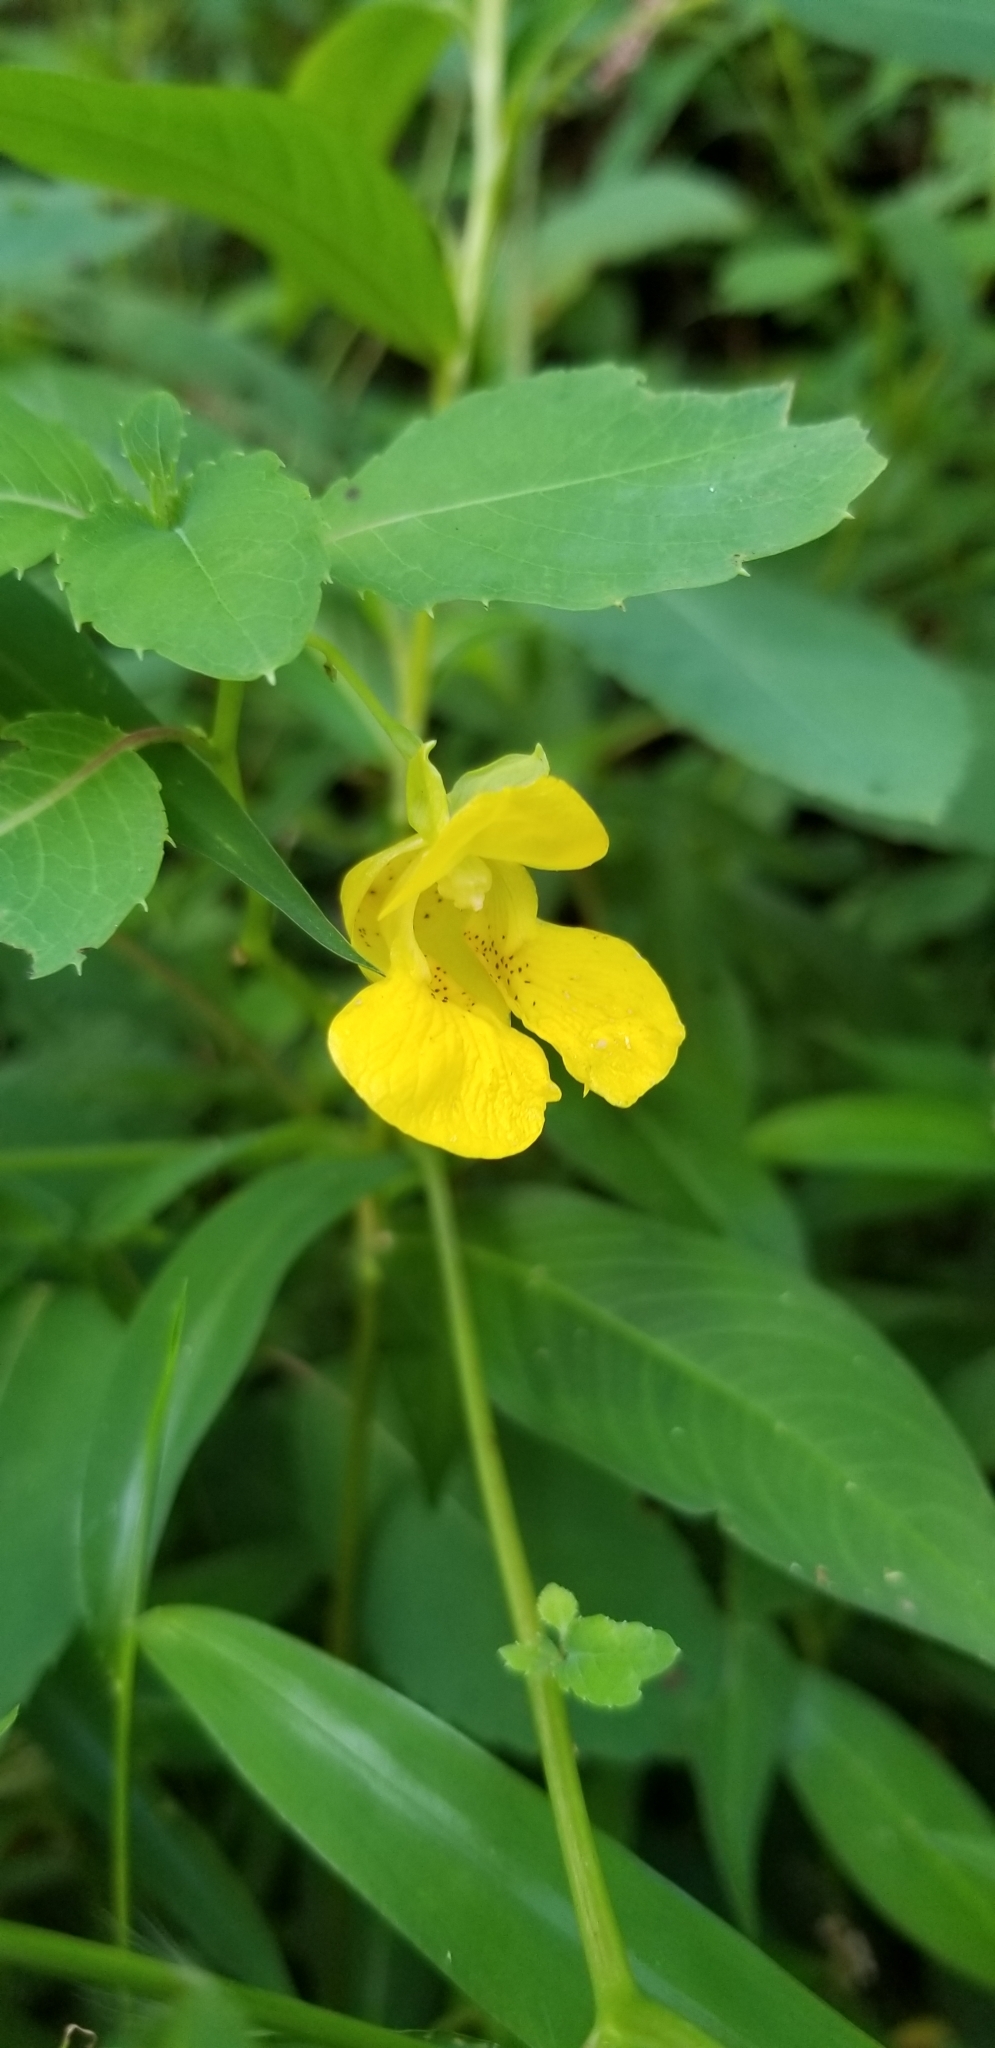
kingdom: Plantae
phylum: Tracheophyta
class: Magnoliopsida
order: Ericales
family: Balsaminaceae
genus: Impatiens
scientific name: Impatiens pallida
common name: Pale snapweed
